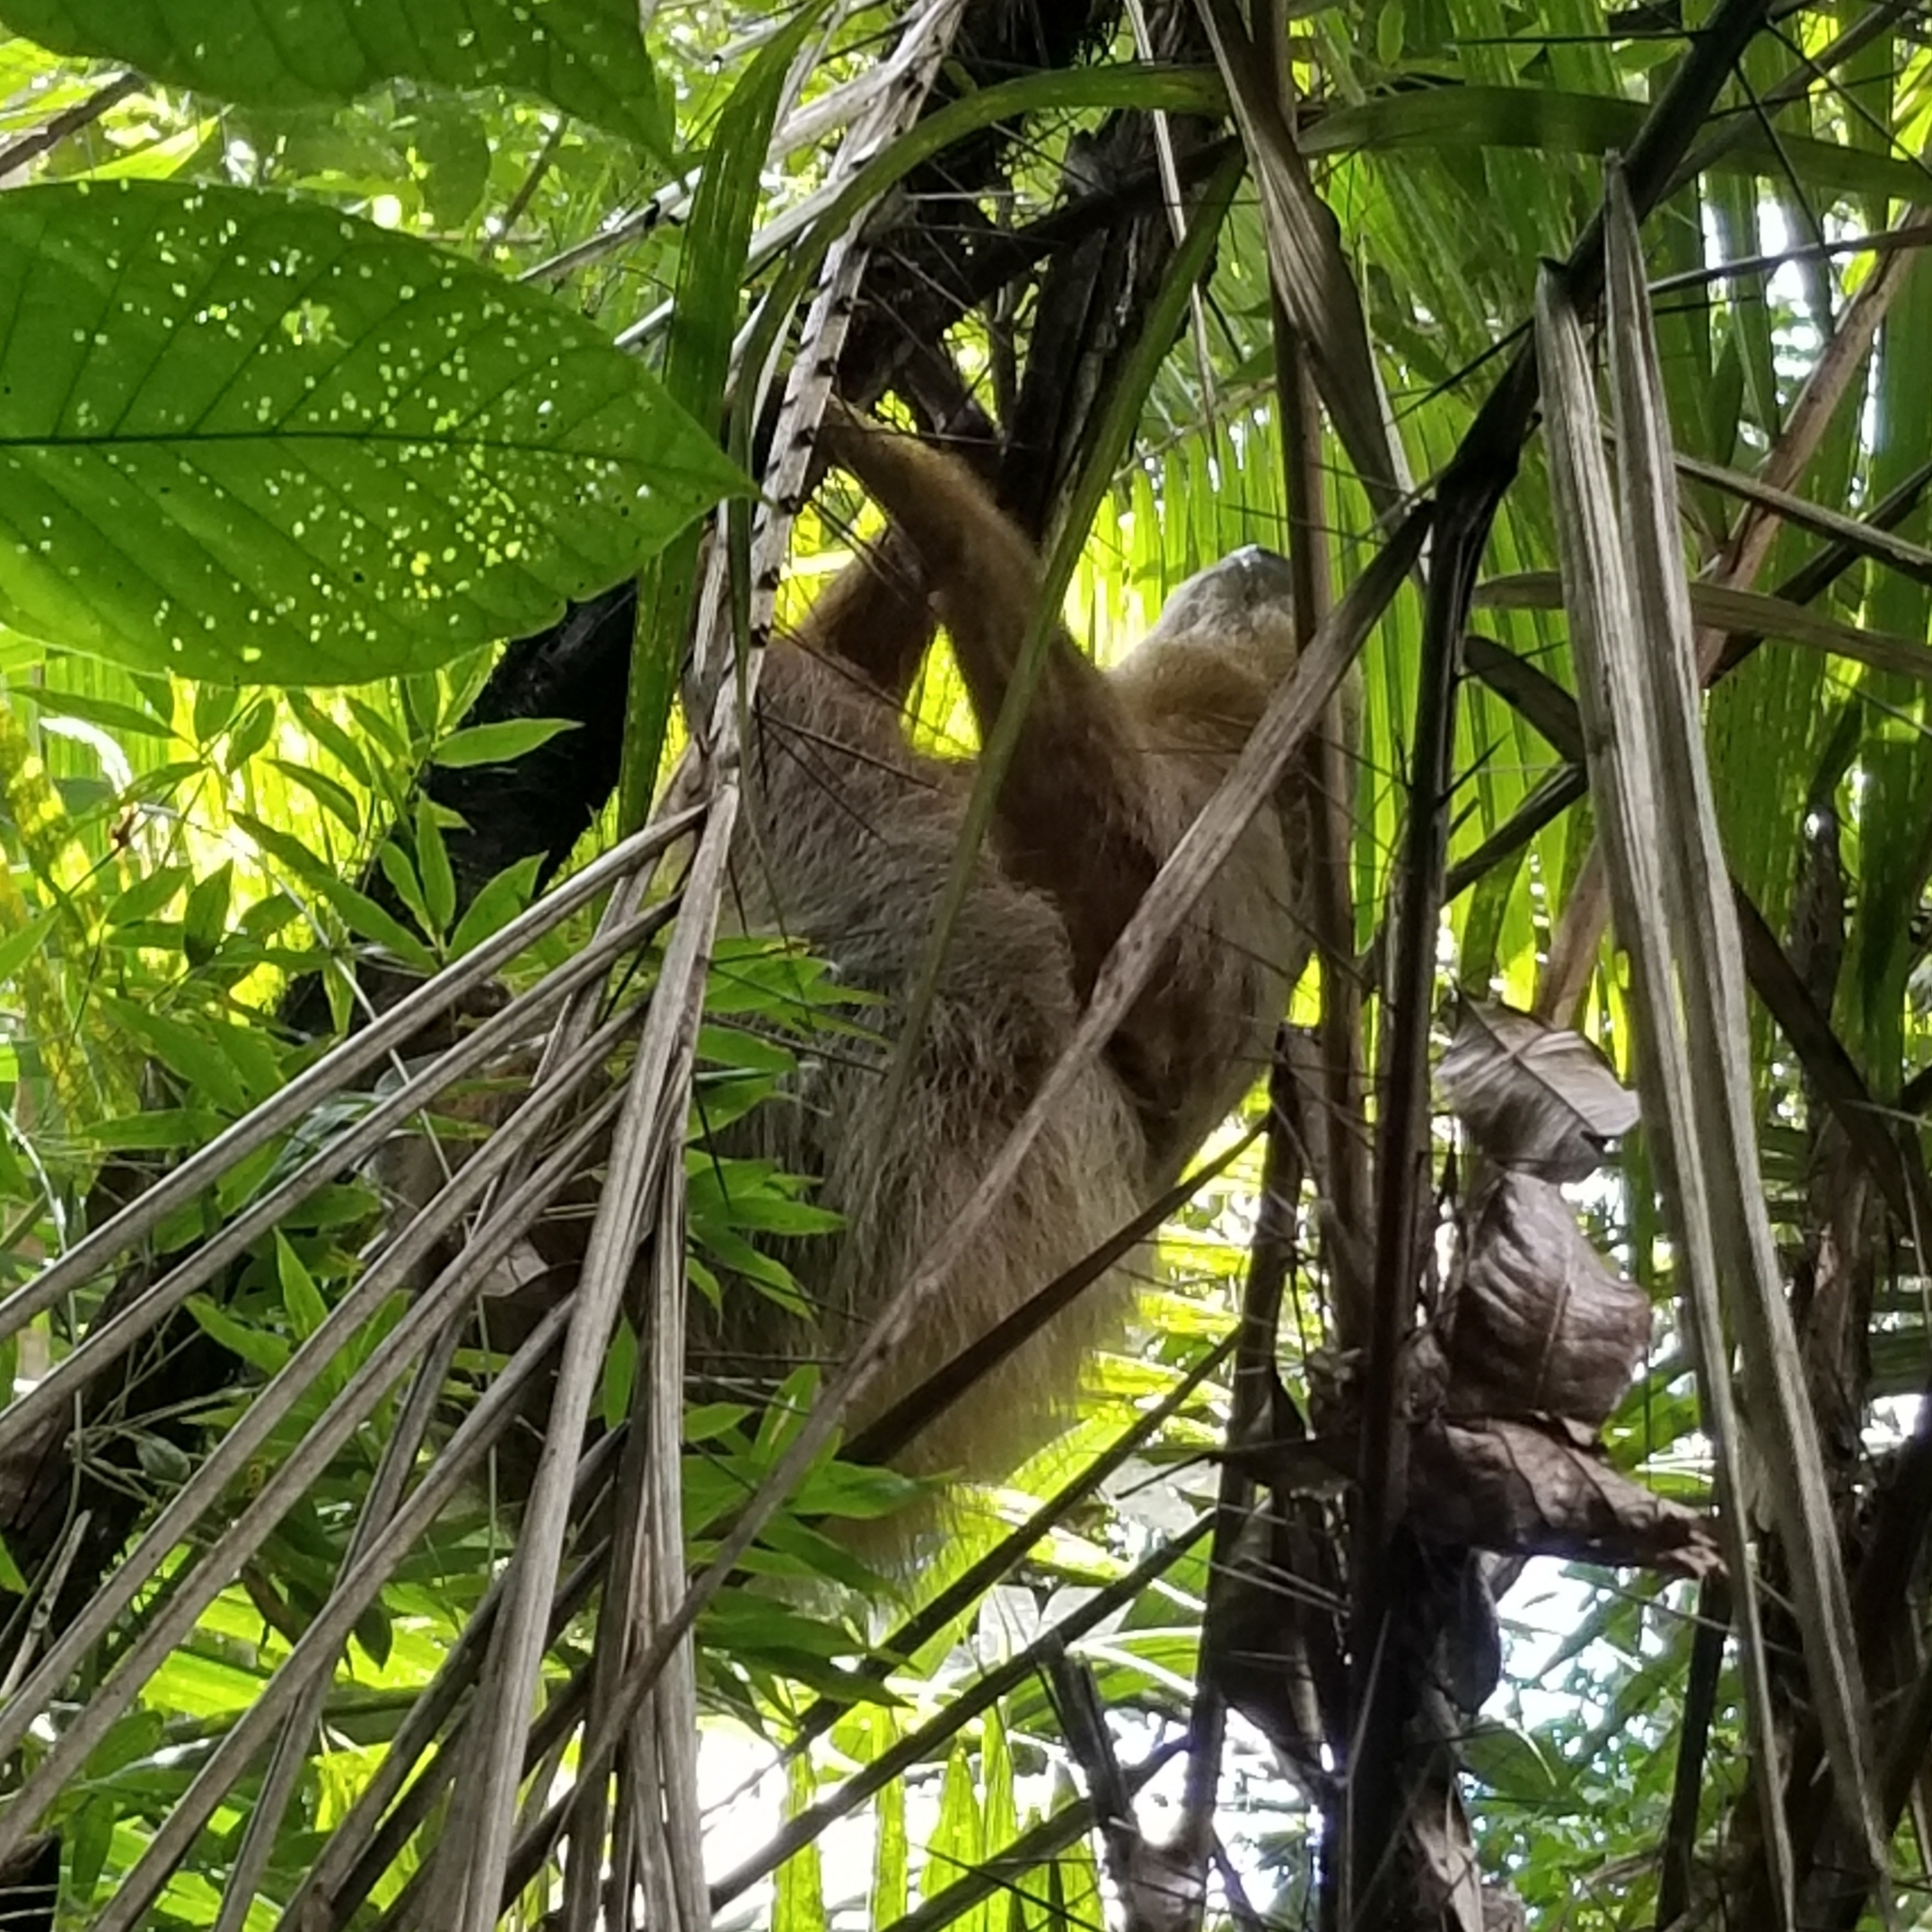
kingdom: Animalia
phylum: Chordata
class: Mammalia
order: Pilosa
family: Megalonychidae
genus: Choloepus
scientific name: Choloepus hoffmanni
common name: Hoffmann's two-toed sloth
